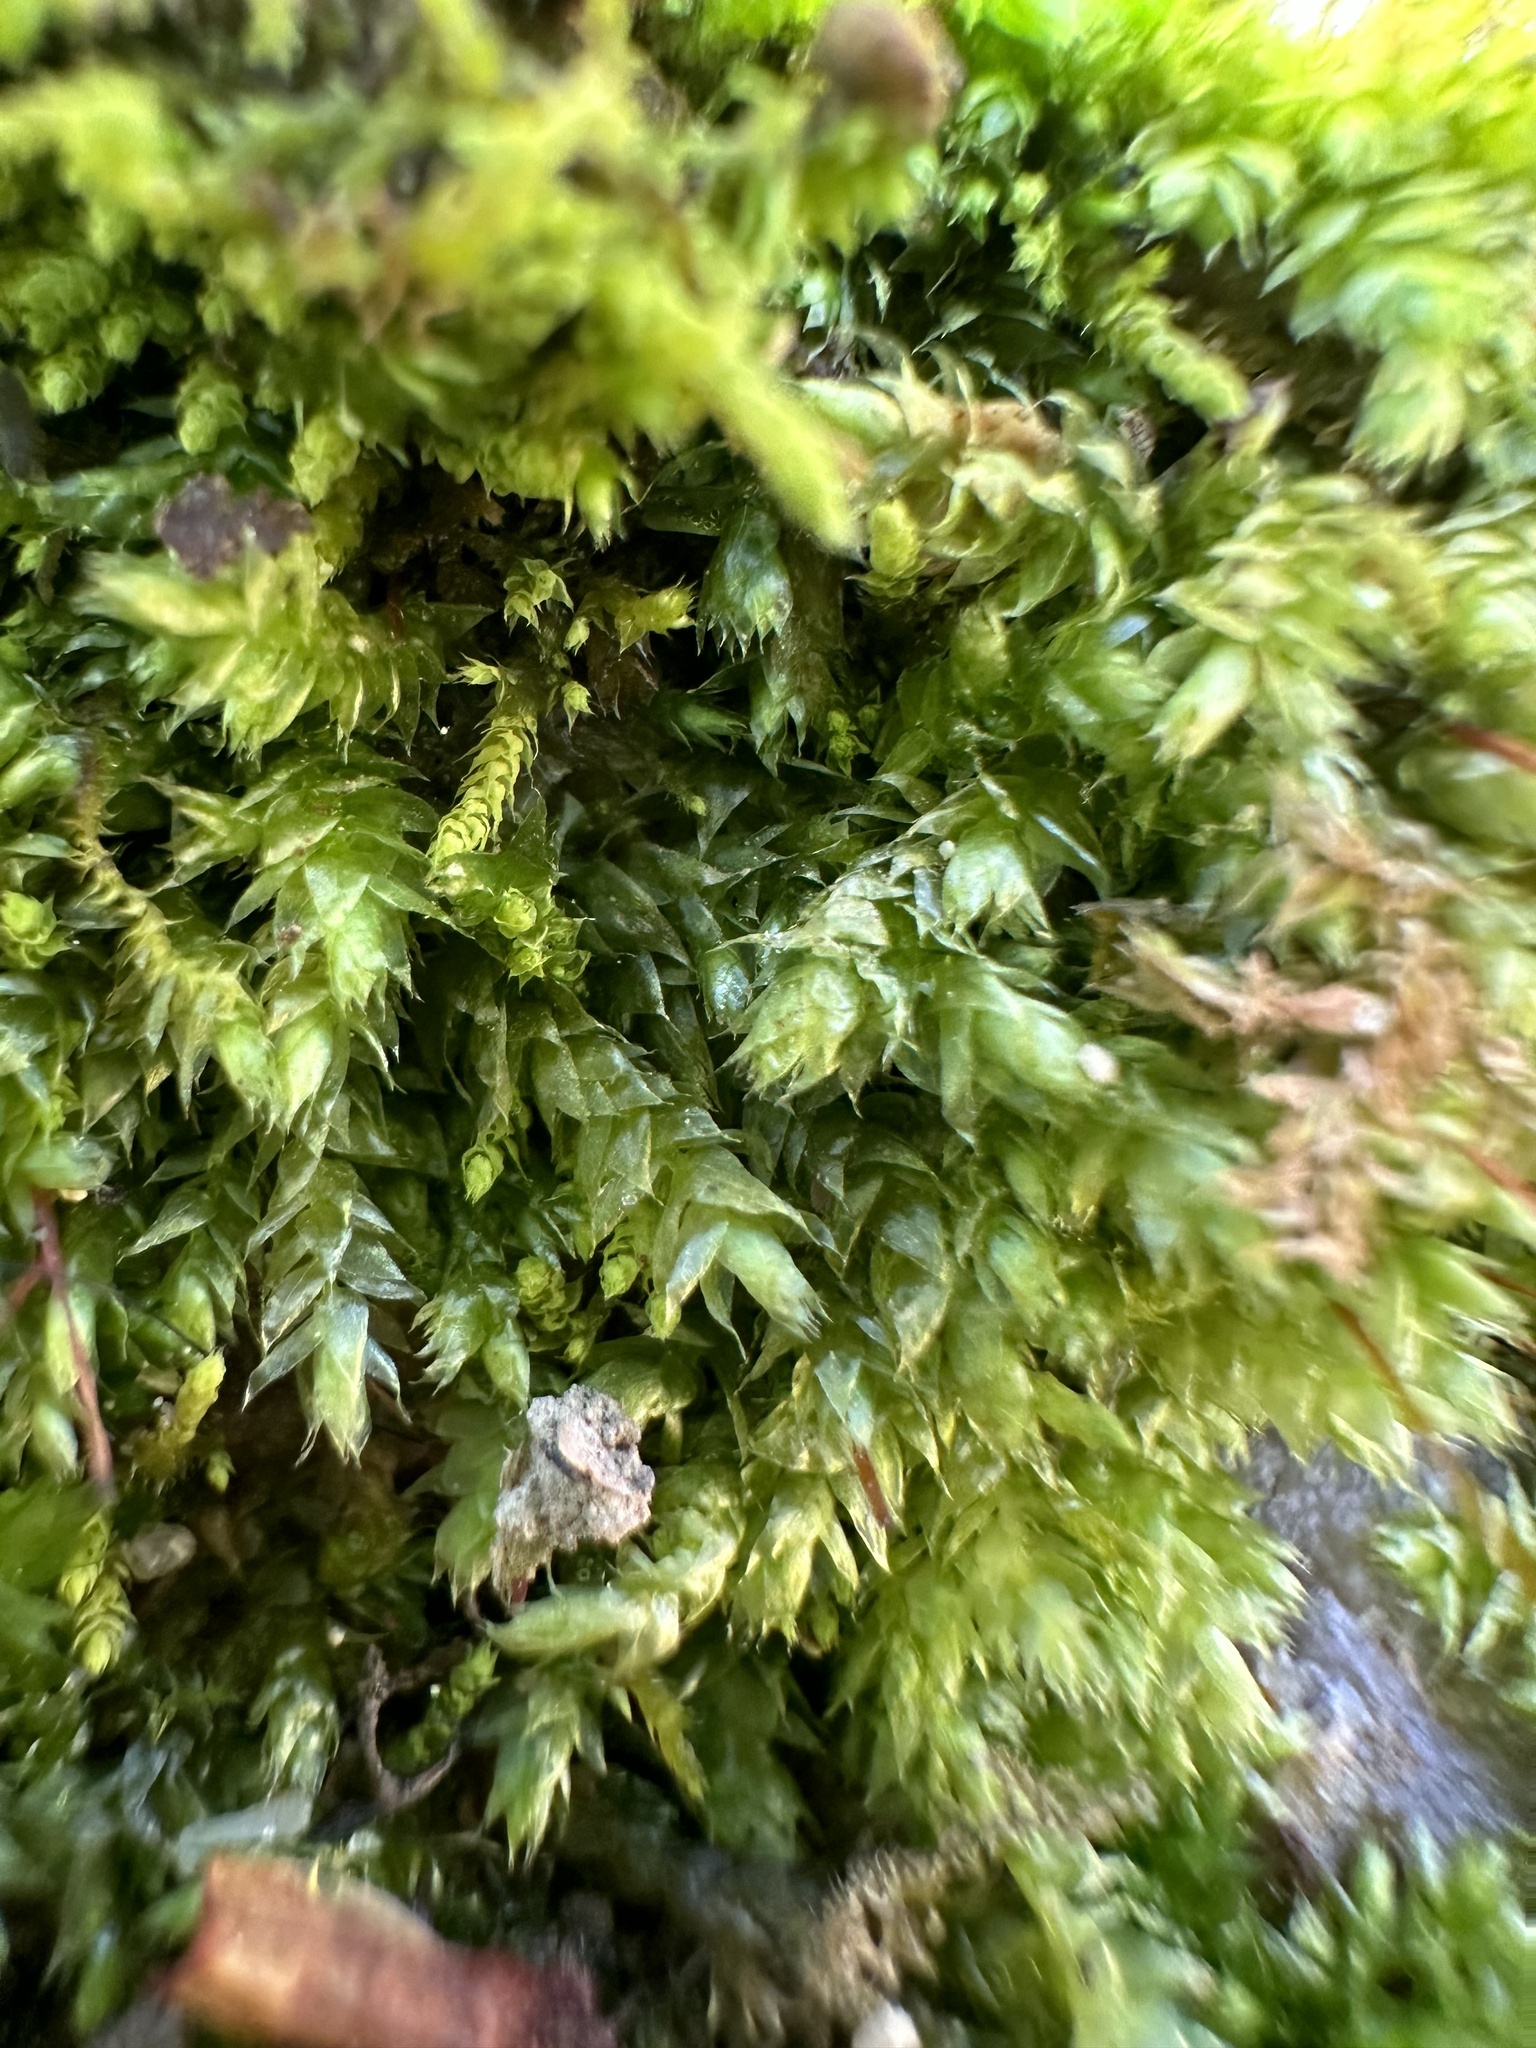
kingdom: Plantae
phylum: Bryophyta
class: Bryopsida
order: Hypnales
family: Brachytheciaceae
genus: Rhynchostegium
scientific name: Rhynchostegium serrulatum
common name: Serrulate-leaved long-beaked moss
